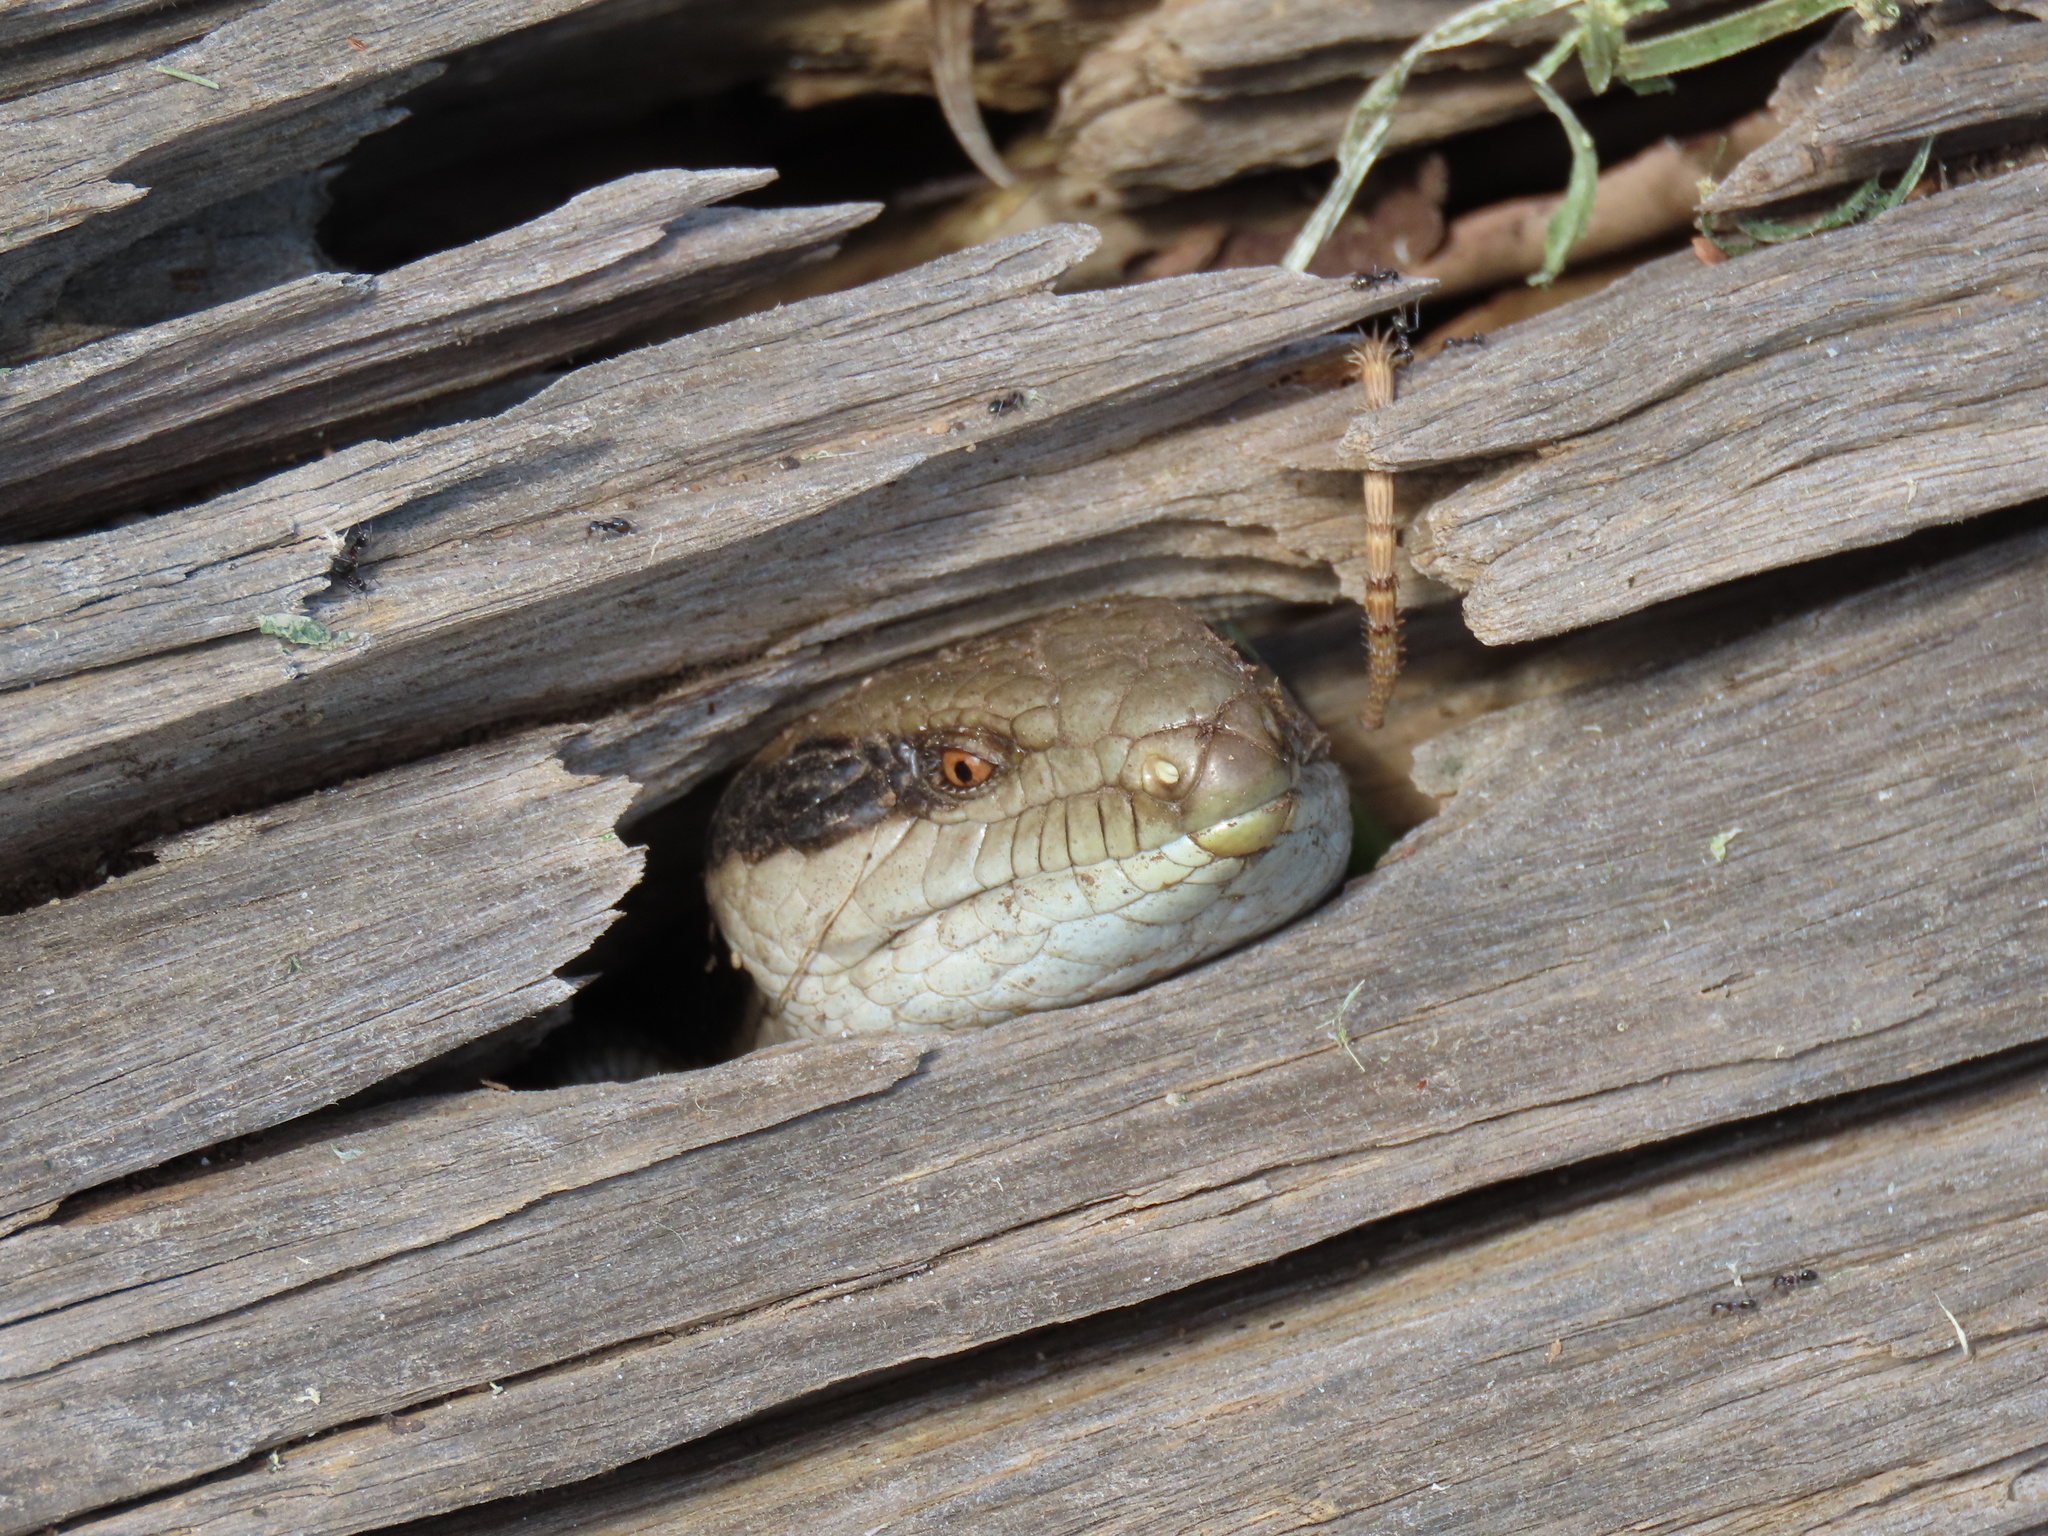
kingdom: Animalia
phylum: Chordata
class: Squamata
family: Scincidae
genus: Tiliqua
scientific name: Tiliqua scincoides
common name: Common bluetongue
